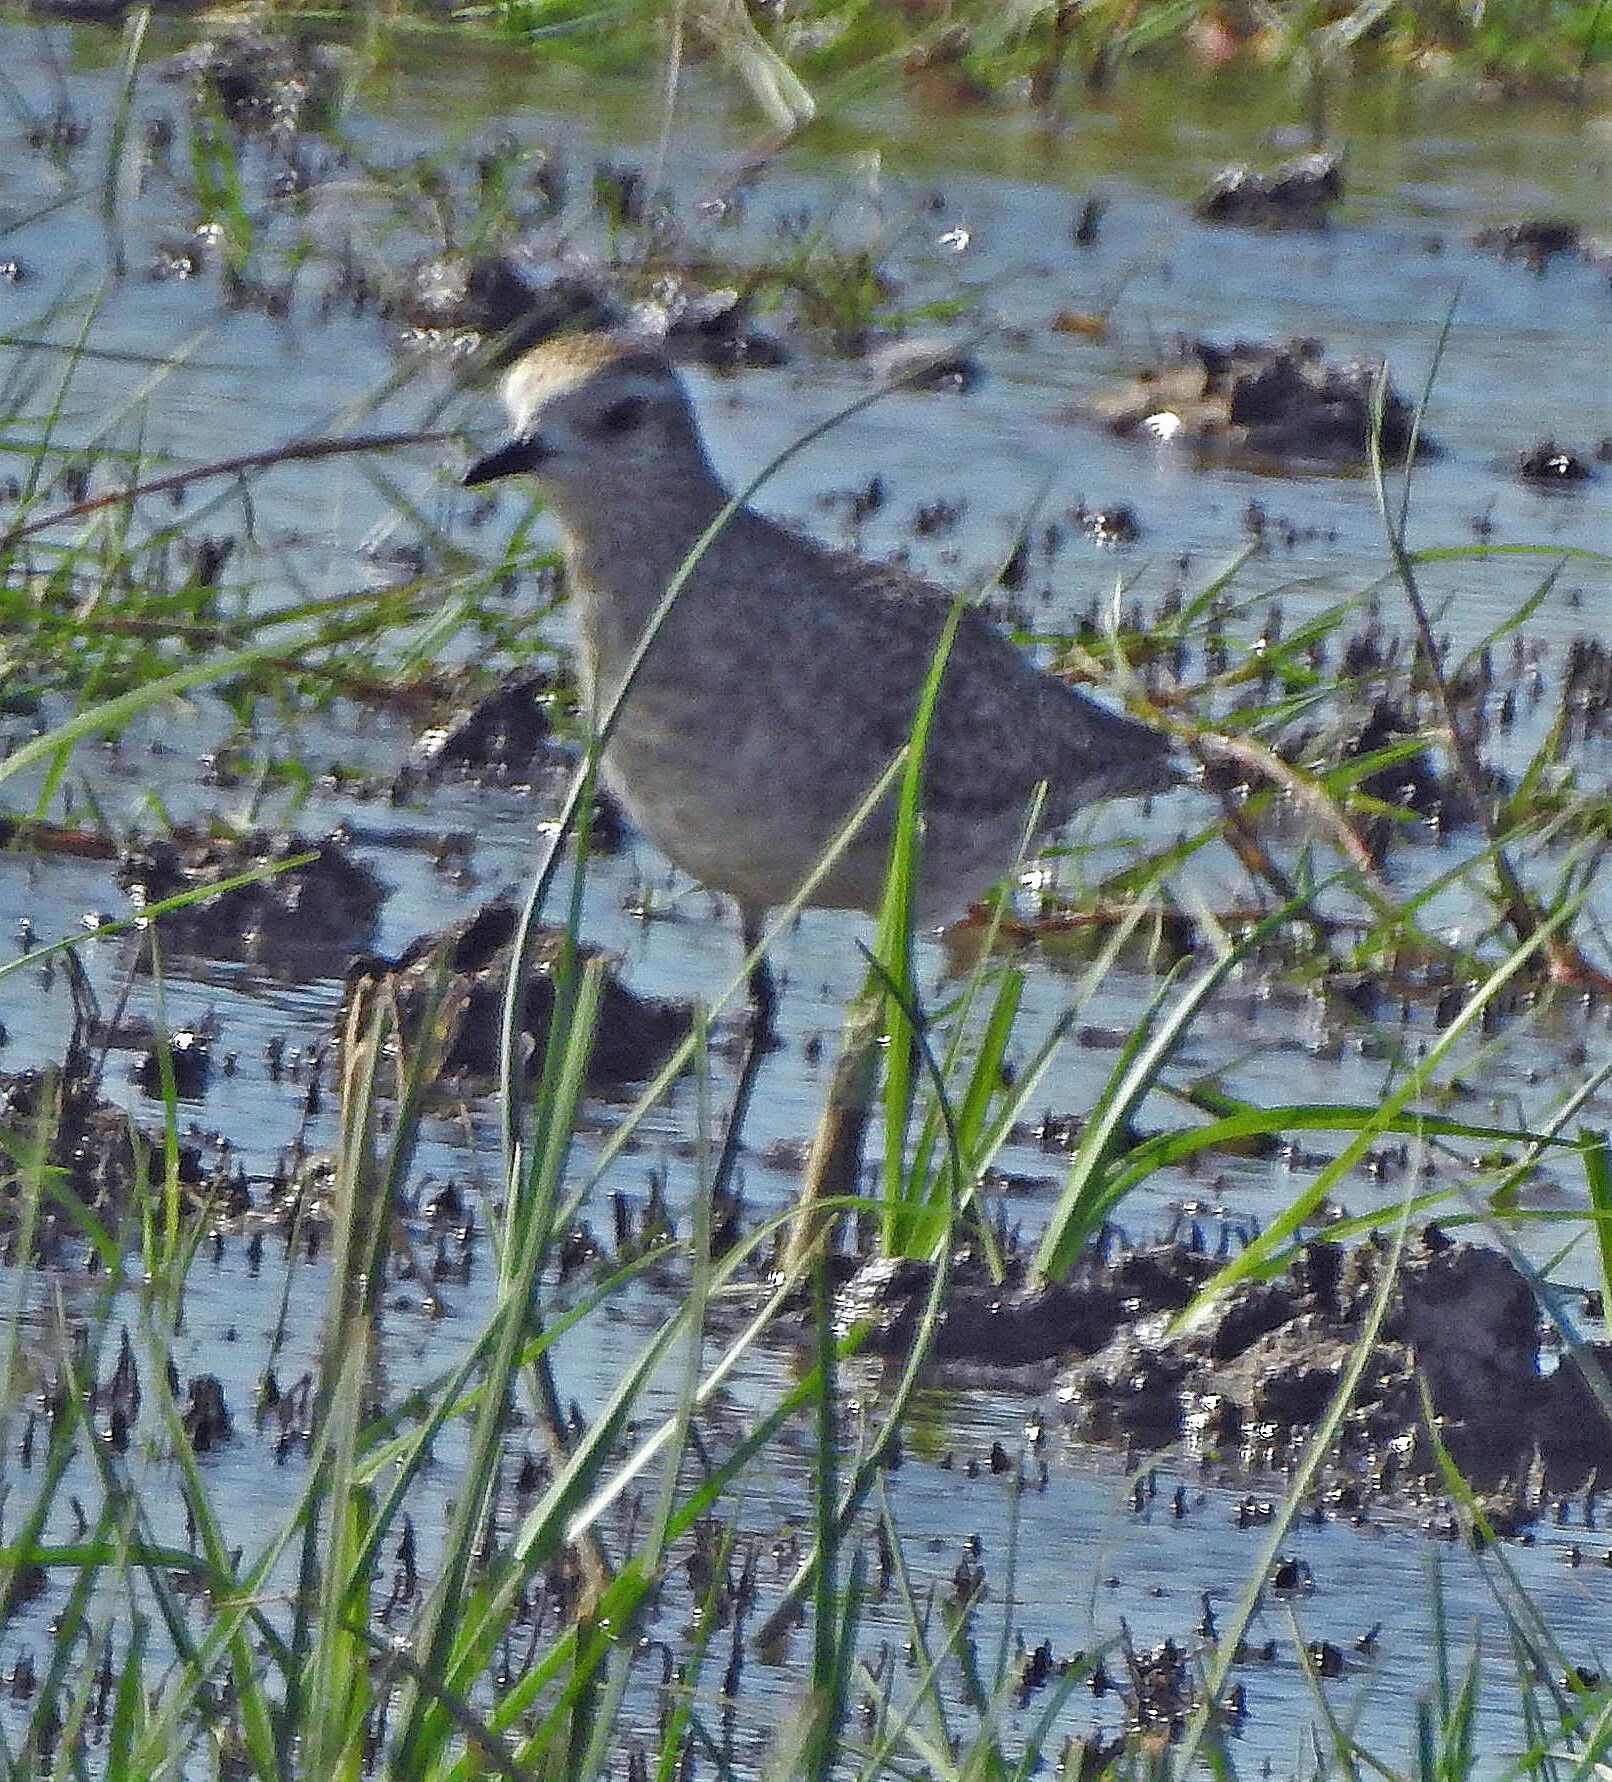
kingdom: Animalia
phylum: Chordata
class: Aves
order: Charadriiformes
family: Charadriidae
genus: Pluvialis
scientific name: Pluvialis dominica
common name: American golden plover
